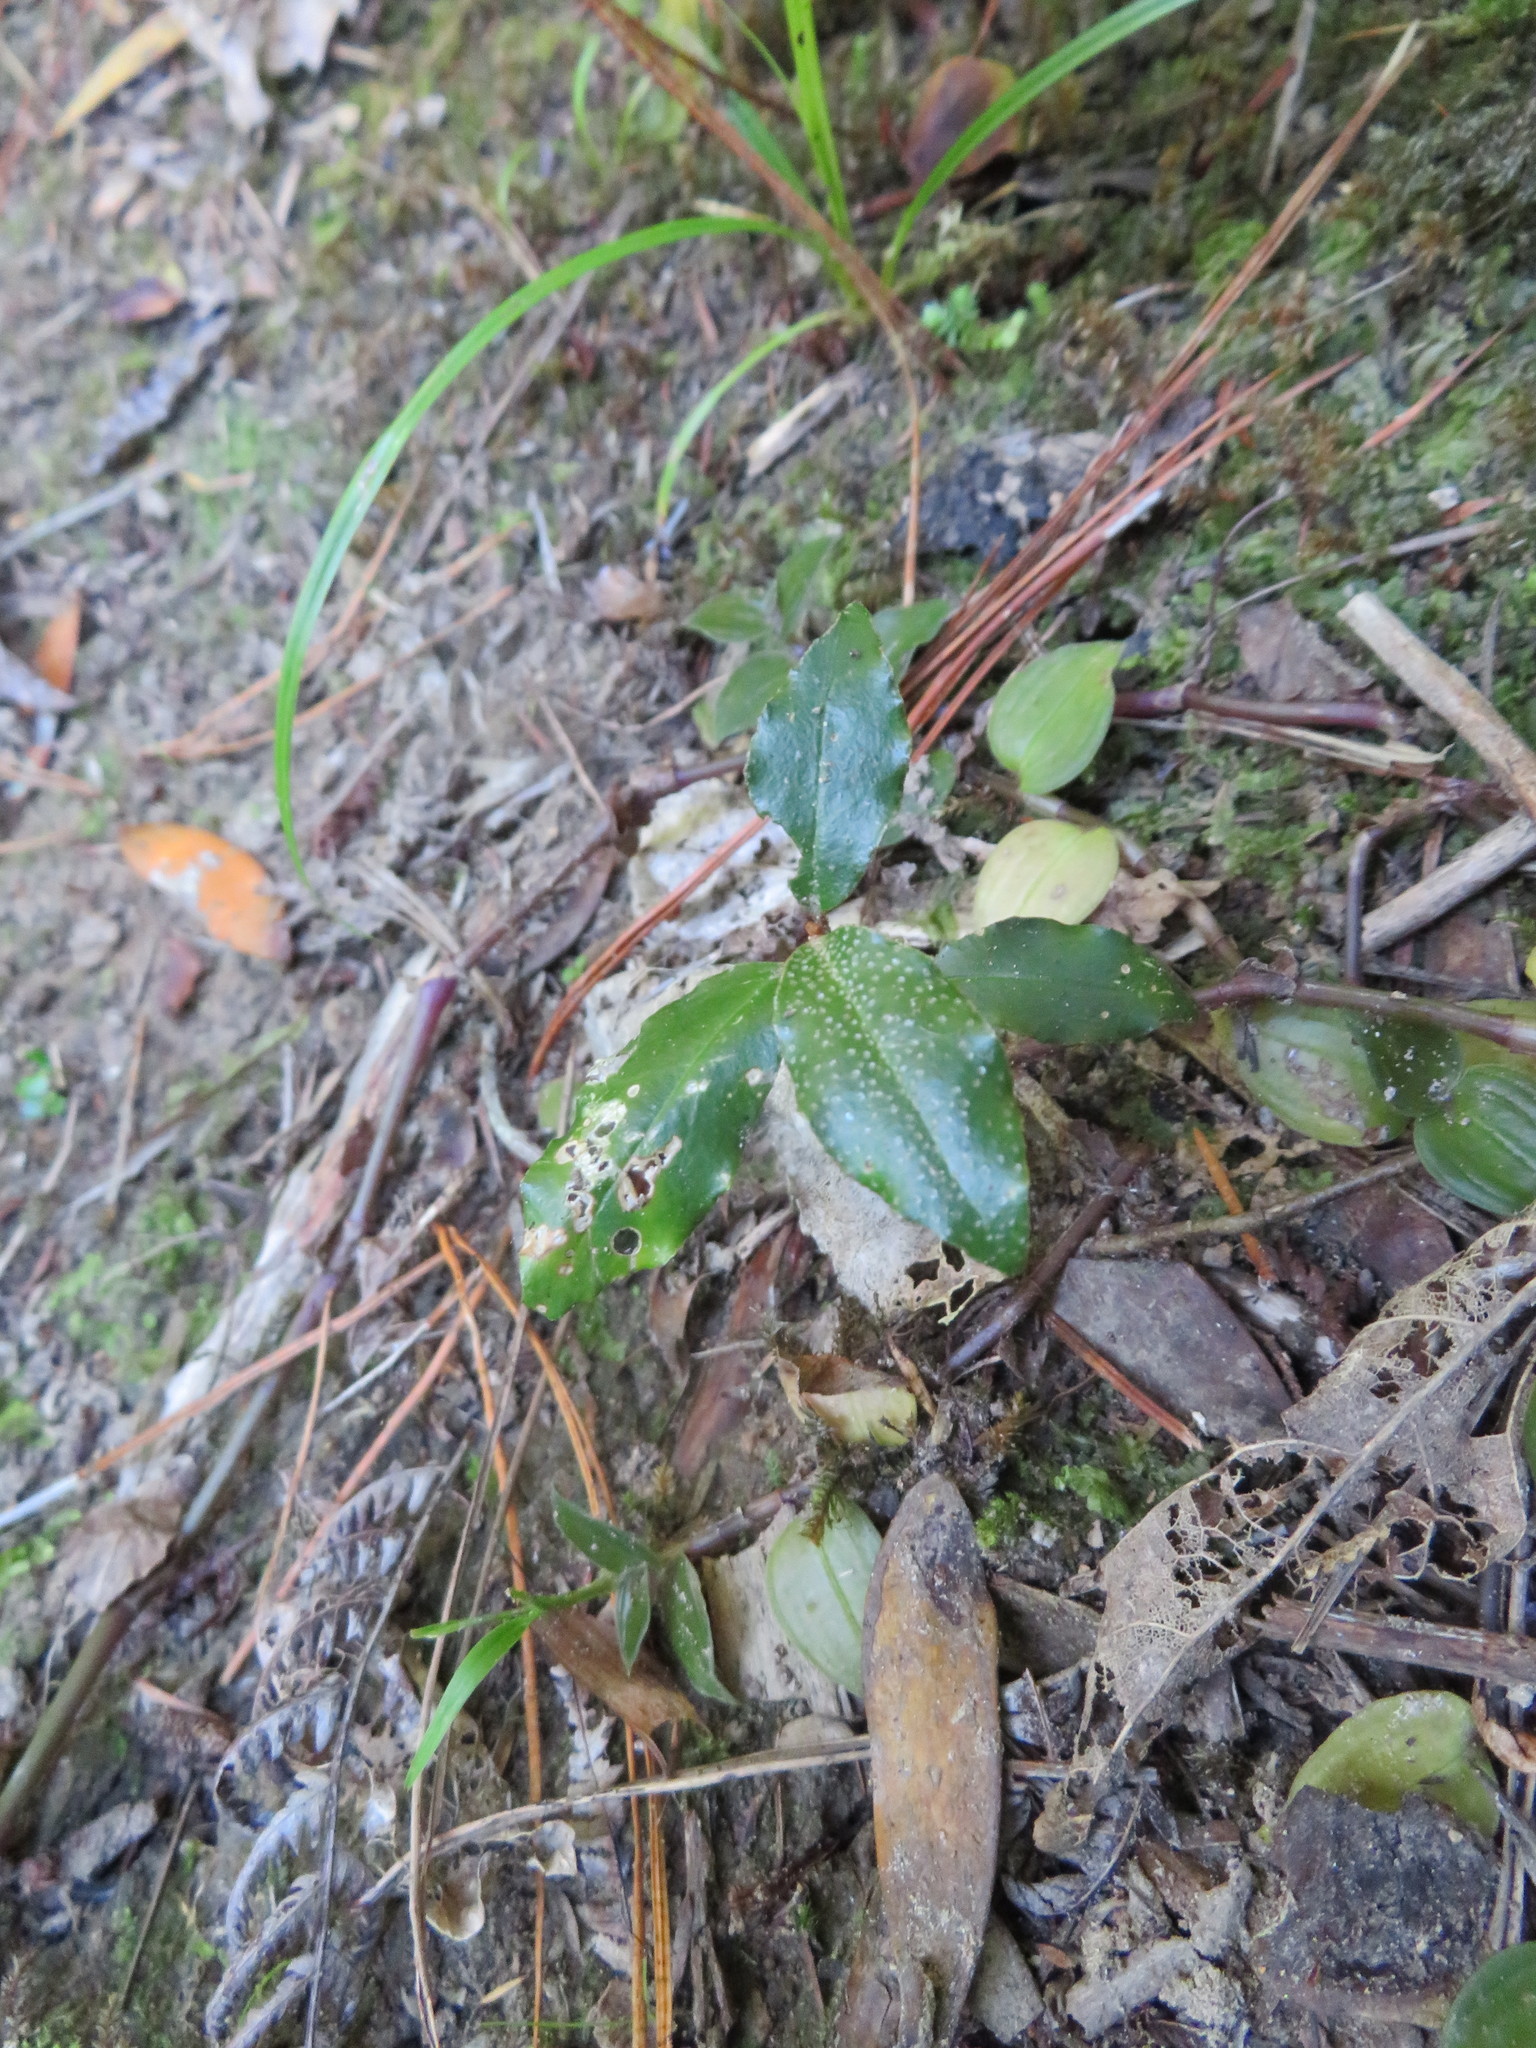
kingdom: Plantae
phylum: Tracheophyta
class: Magnoliopsida
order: Rosales
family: Elaeagnaceae
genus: Elaeagnus
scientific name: Elaeagnus reflexa
